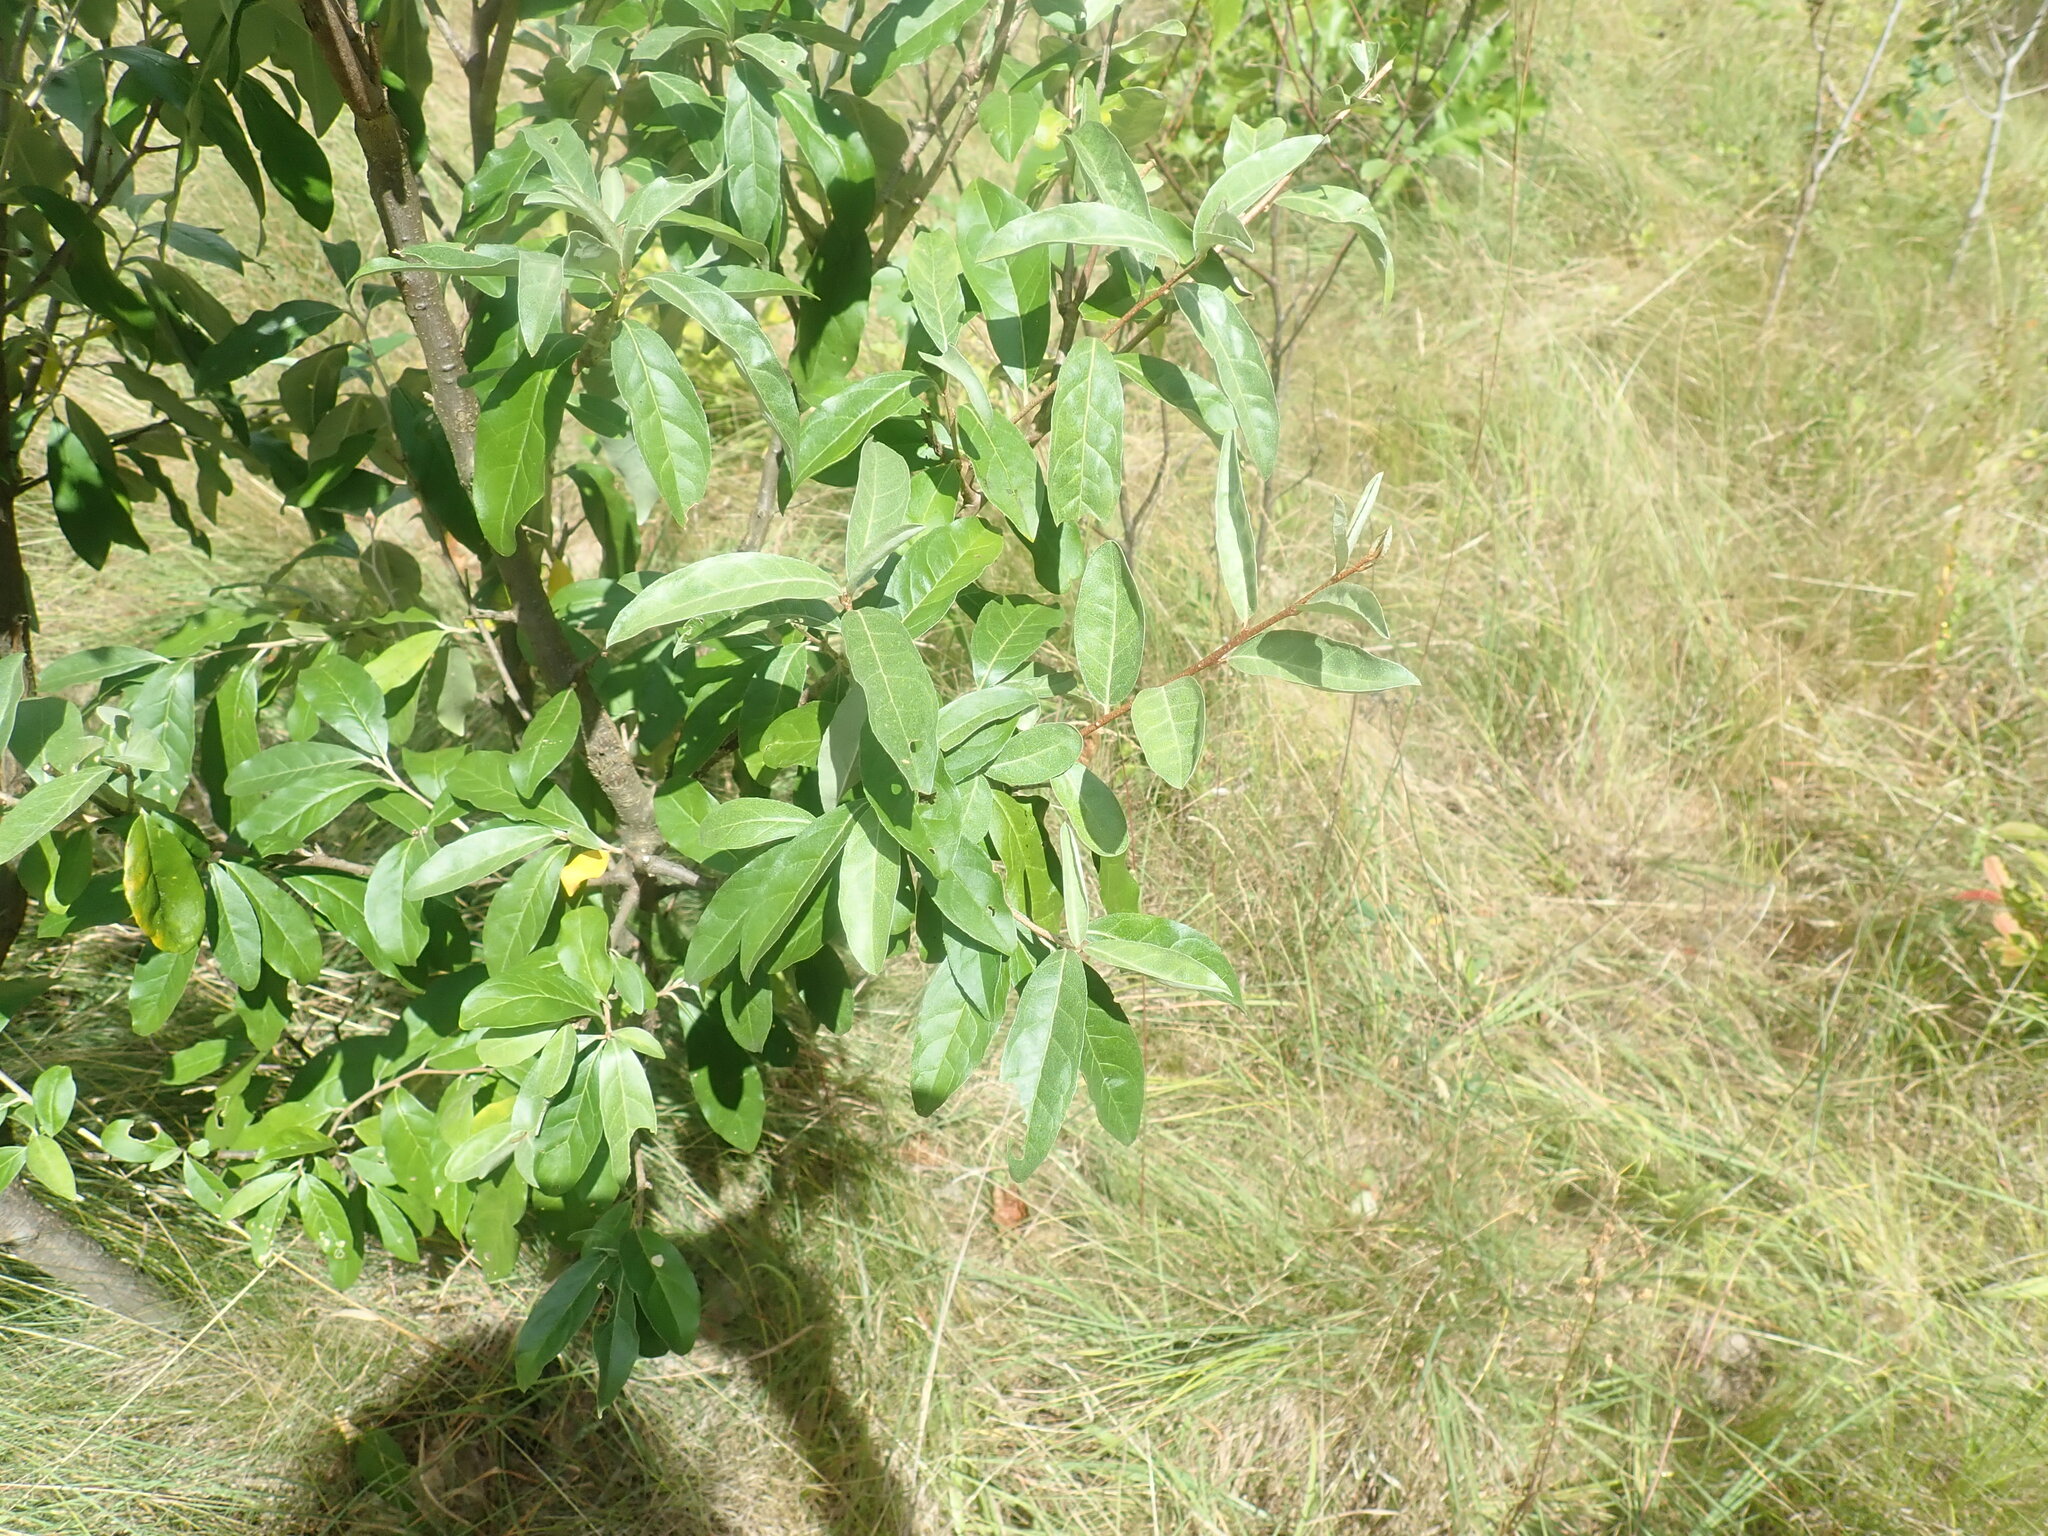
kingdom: Plantae
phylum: Tracheophyta
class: Magnoliopsida
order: Rosales
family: Elaeagnaceae
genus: Elaeagnus
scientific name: Elaeagnus umbellata
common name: Autumn olive
